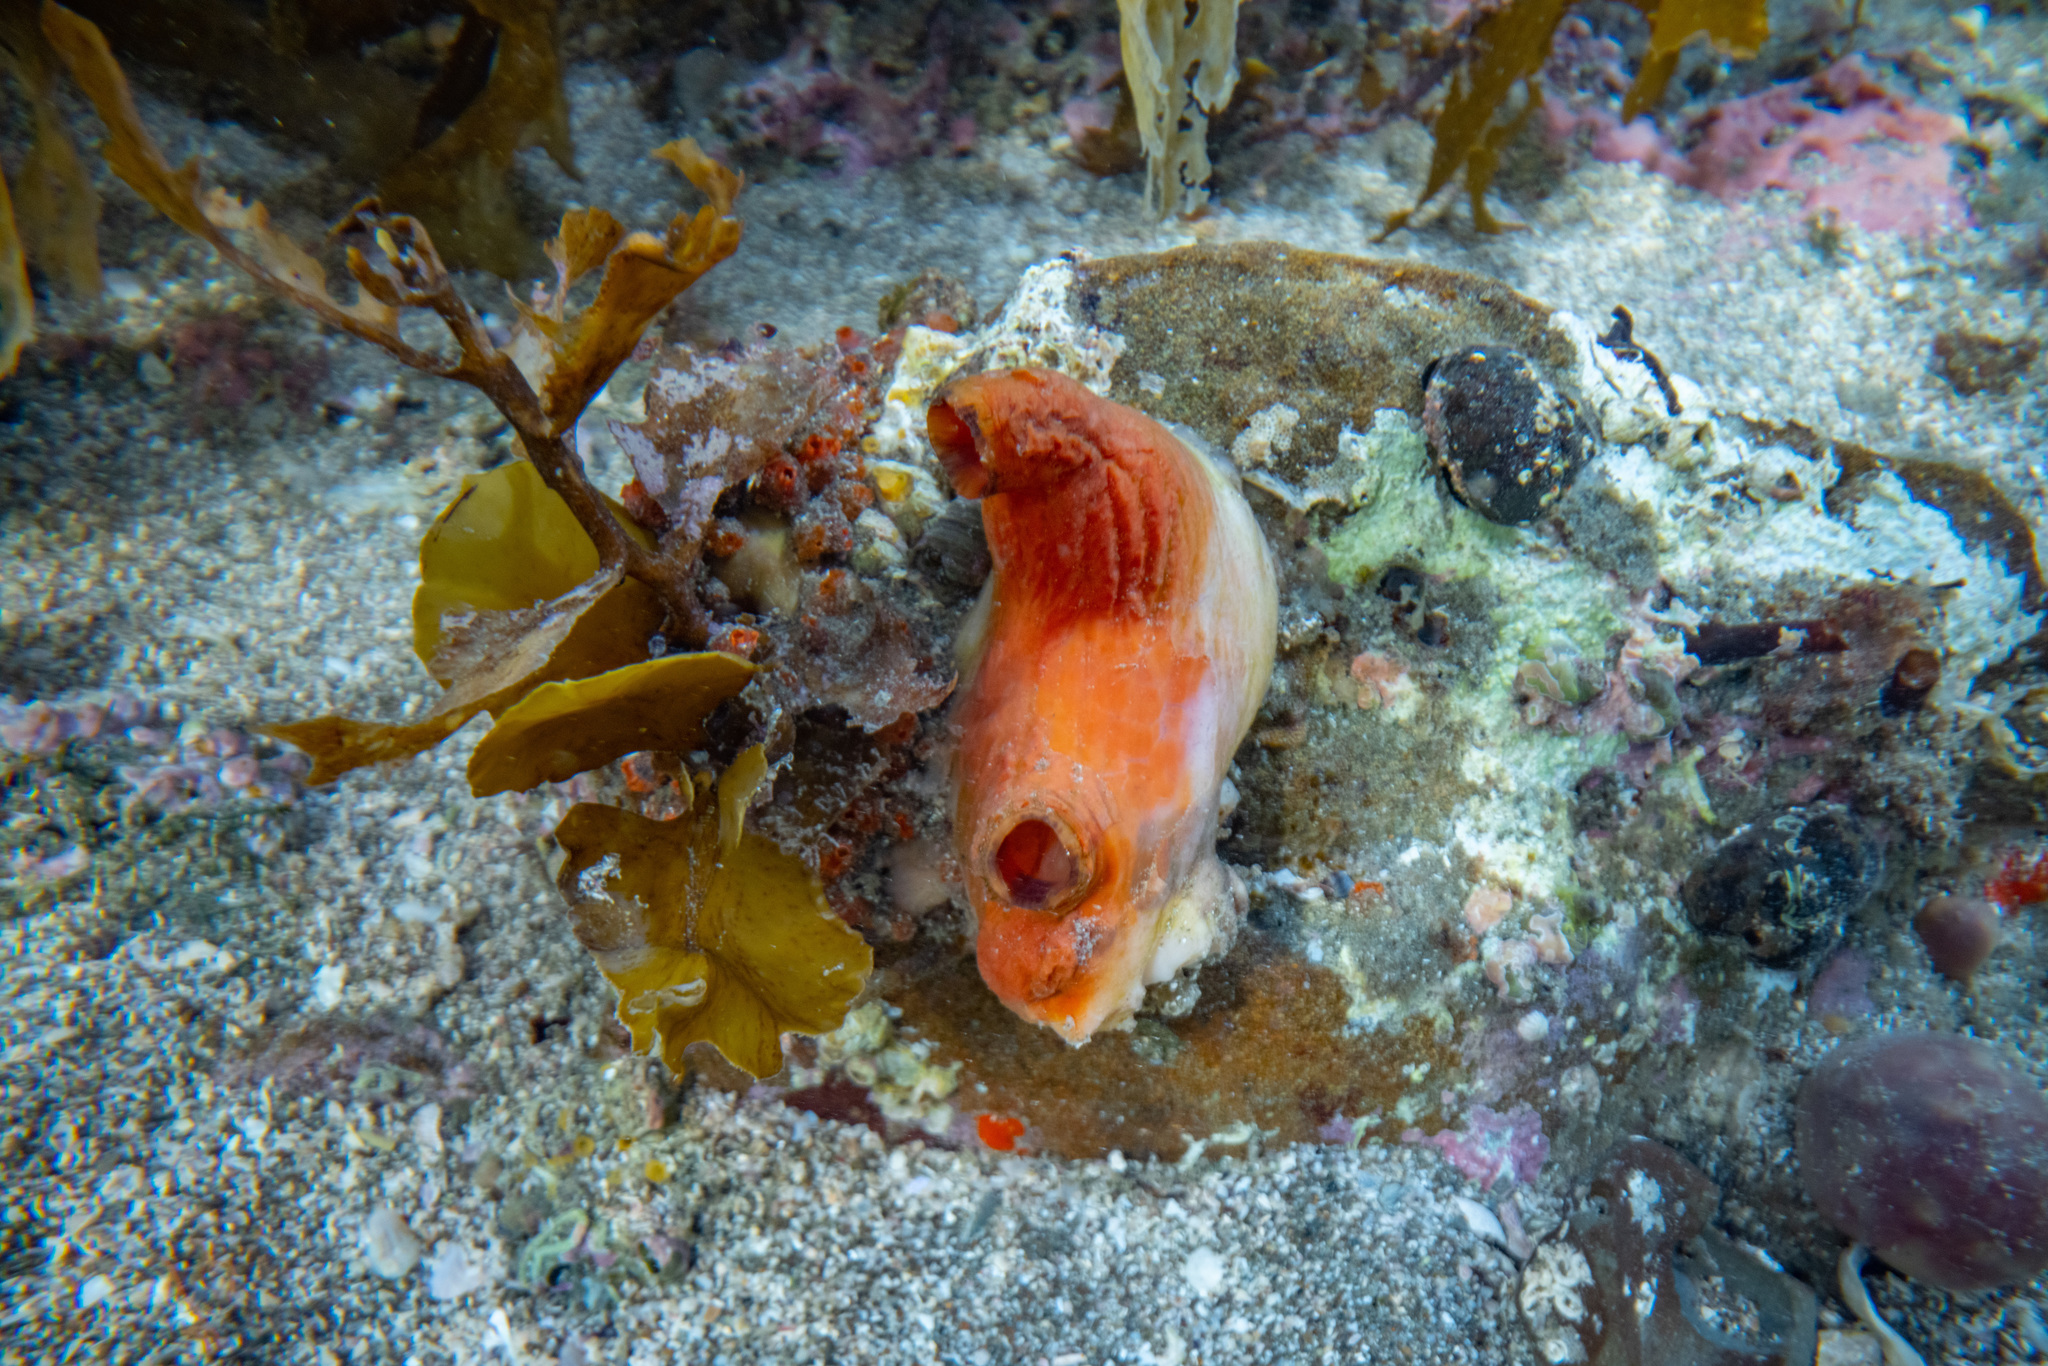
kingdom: Animalia
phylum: Chordata
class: Ascidiacea
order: Stolidobranchia
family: Styelidae
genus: Cnemidocarpa
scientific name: Cnemidocarpa bicornuta
